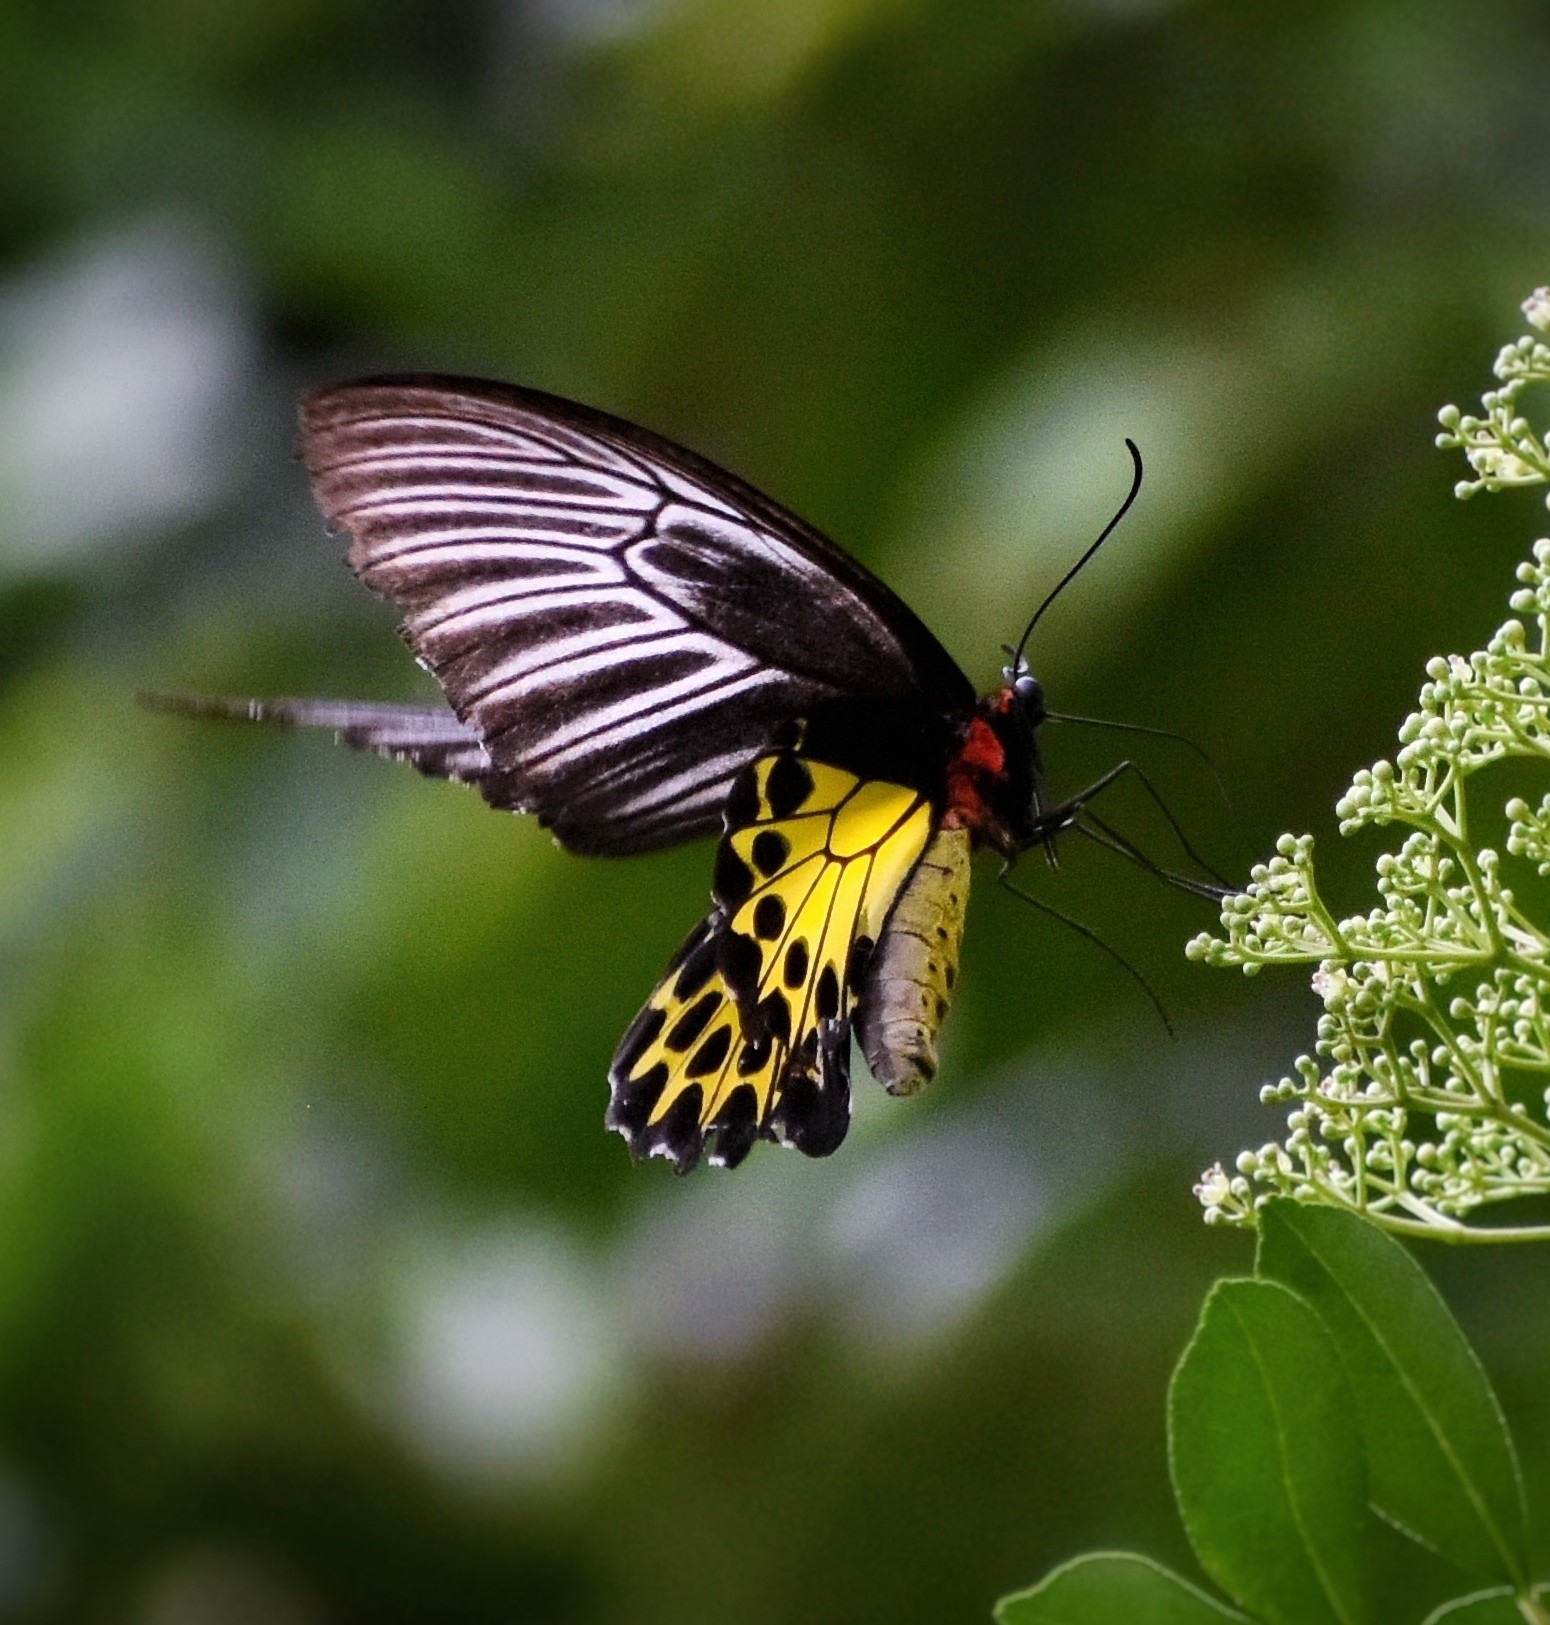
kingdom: Animalia
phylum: Arthropoda
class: Insecta
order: Lepidoptera
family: Papilionidae
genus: Troides
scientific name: Troides helena
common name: Common birdwing
